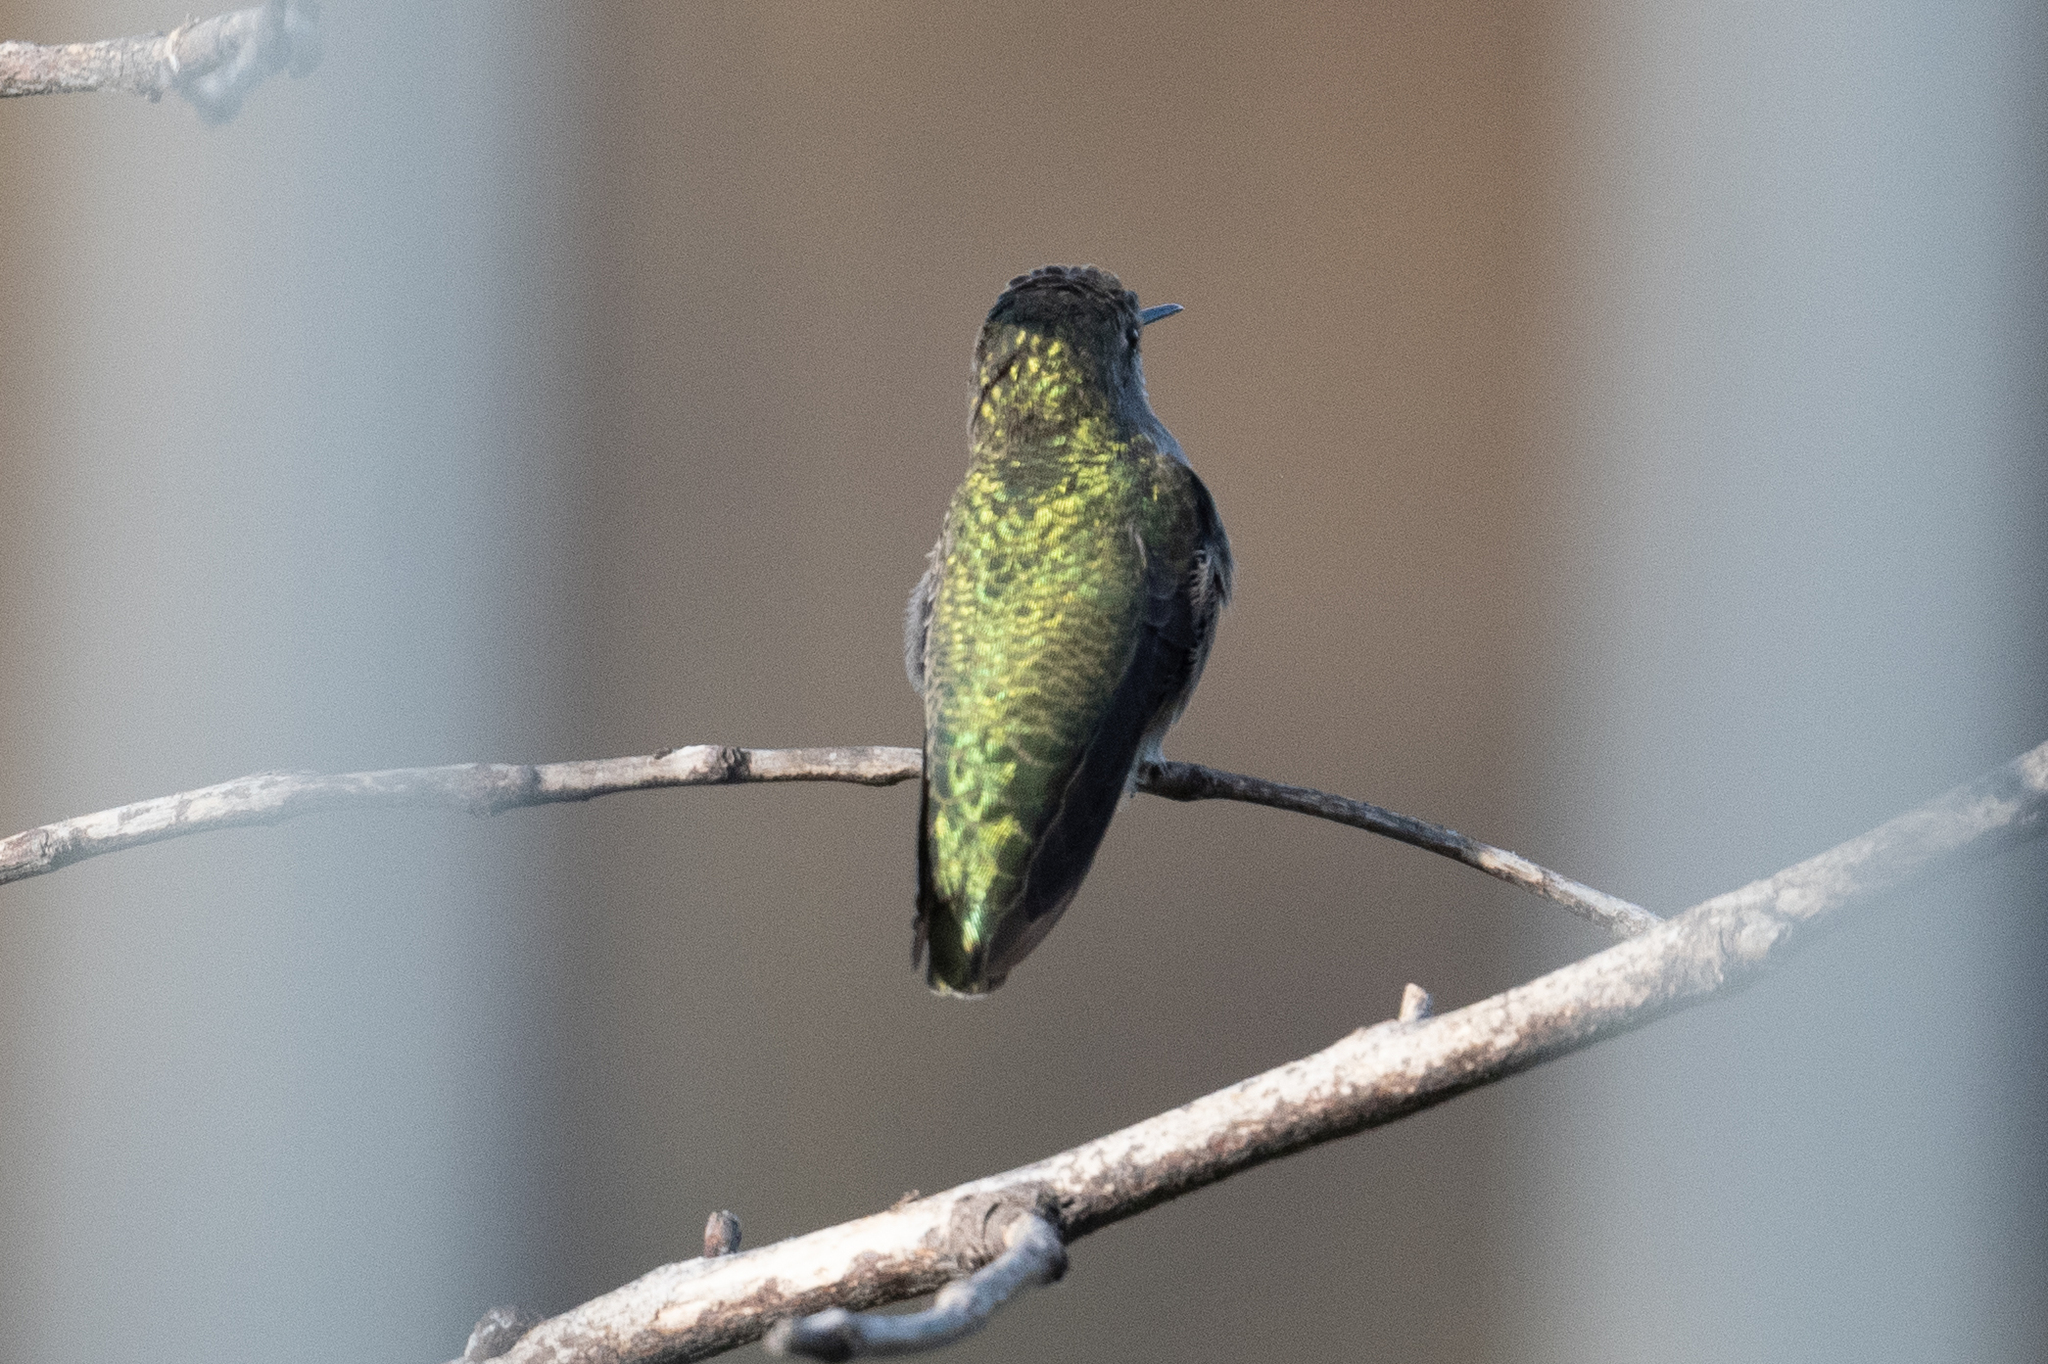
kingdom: Animalia
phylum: Chordata
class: Aves
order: Apodiformes
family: Trochilidae
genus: Calypte
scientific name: Calypte anna
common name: Anna's hummingbird
